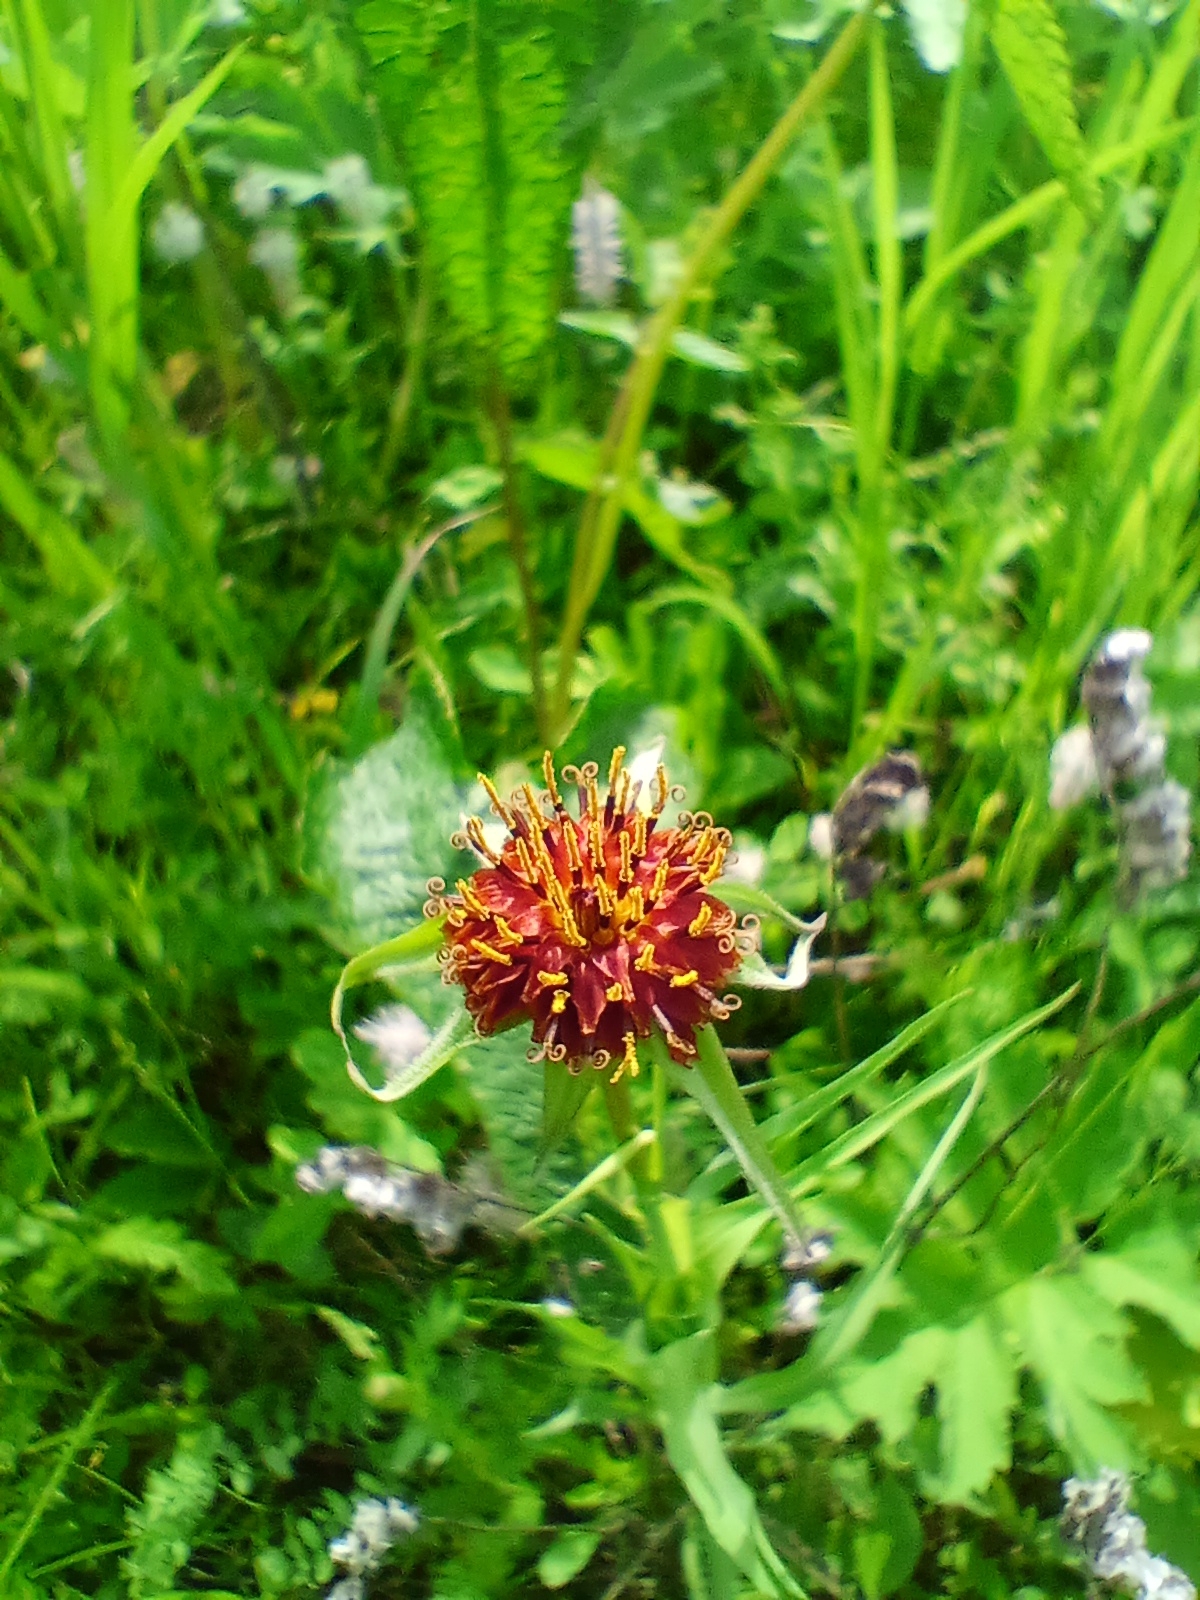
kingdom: Plantae
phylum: Tracheophyta
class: Magnoliopsida
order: Asterales
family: Asteraceae
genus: Tragopogon
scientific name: Tragopogon sibiricus
